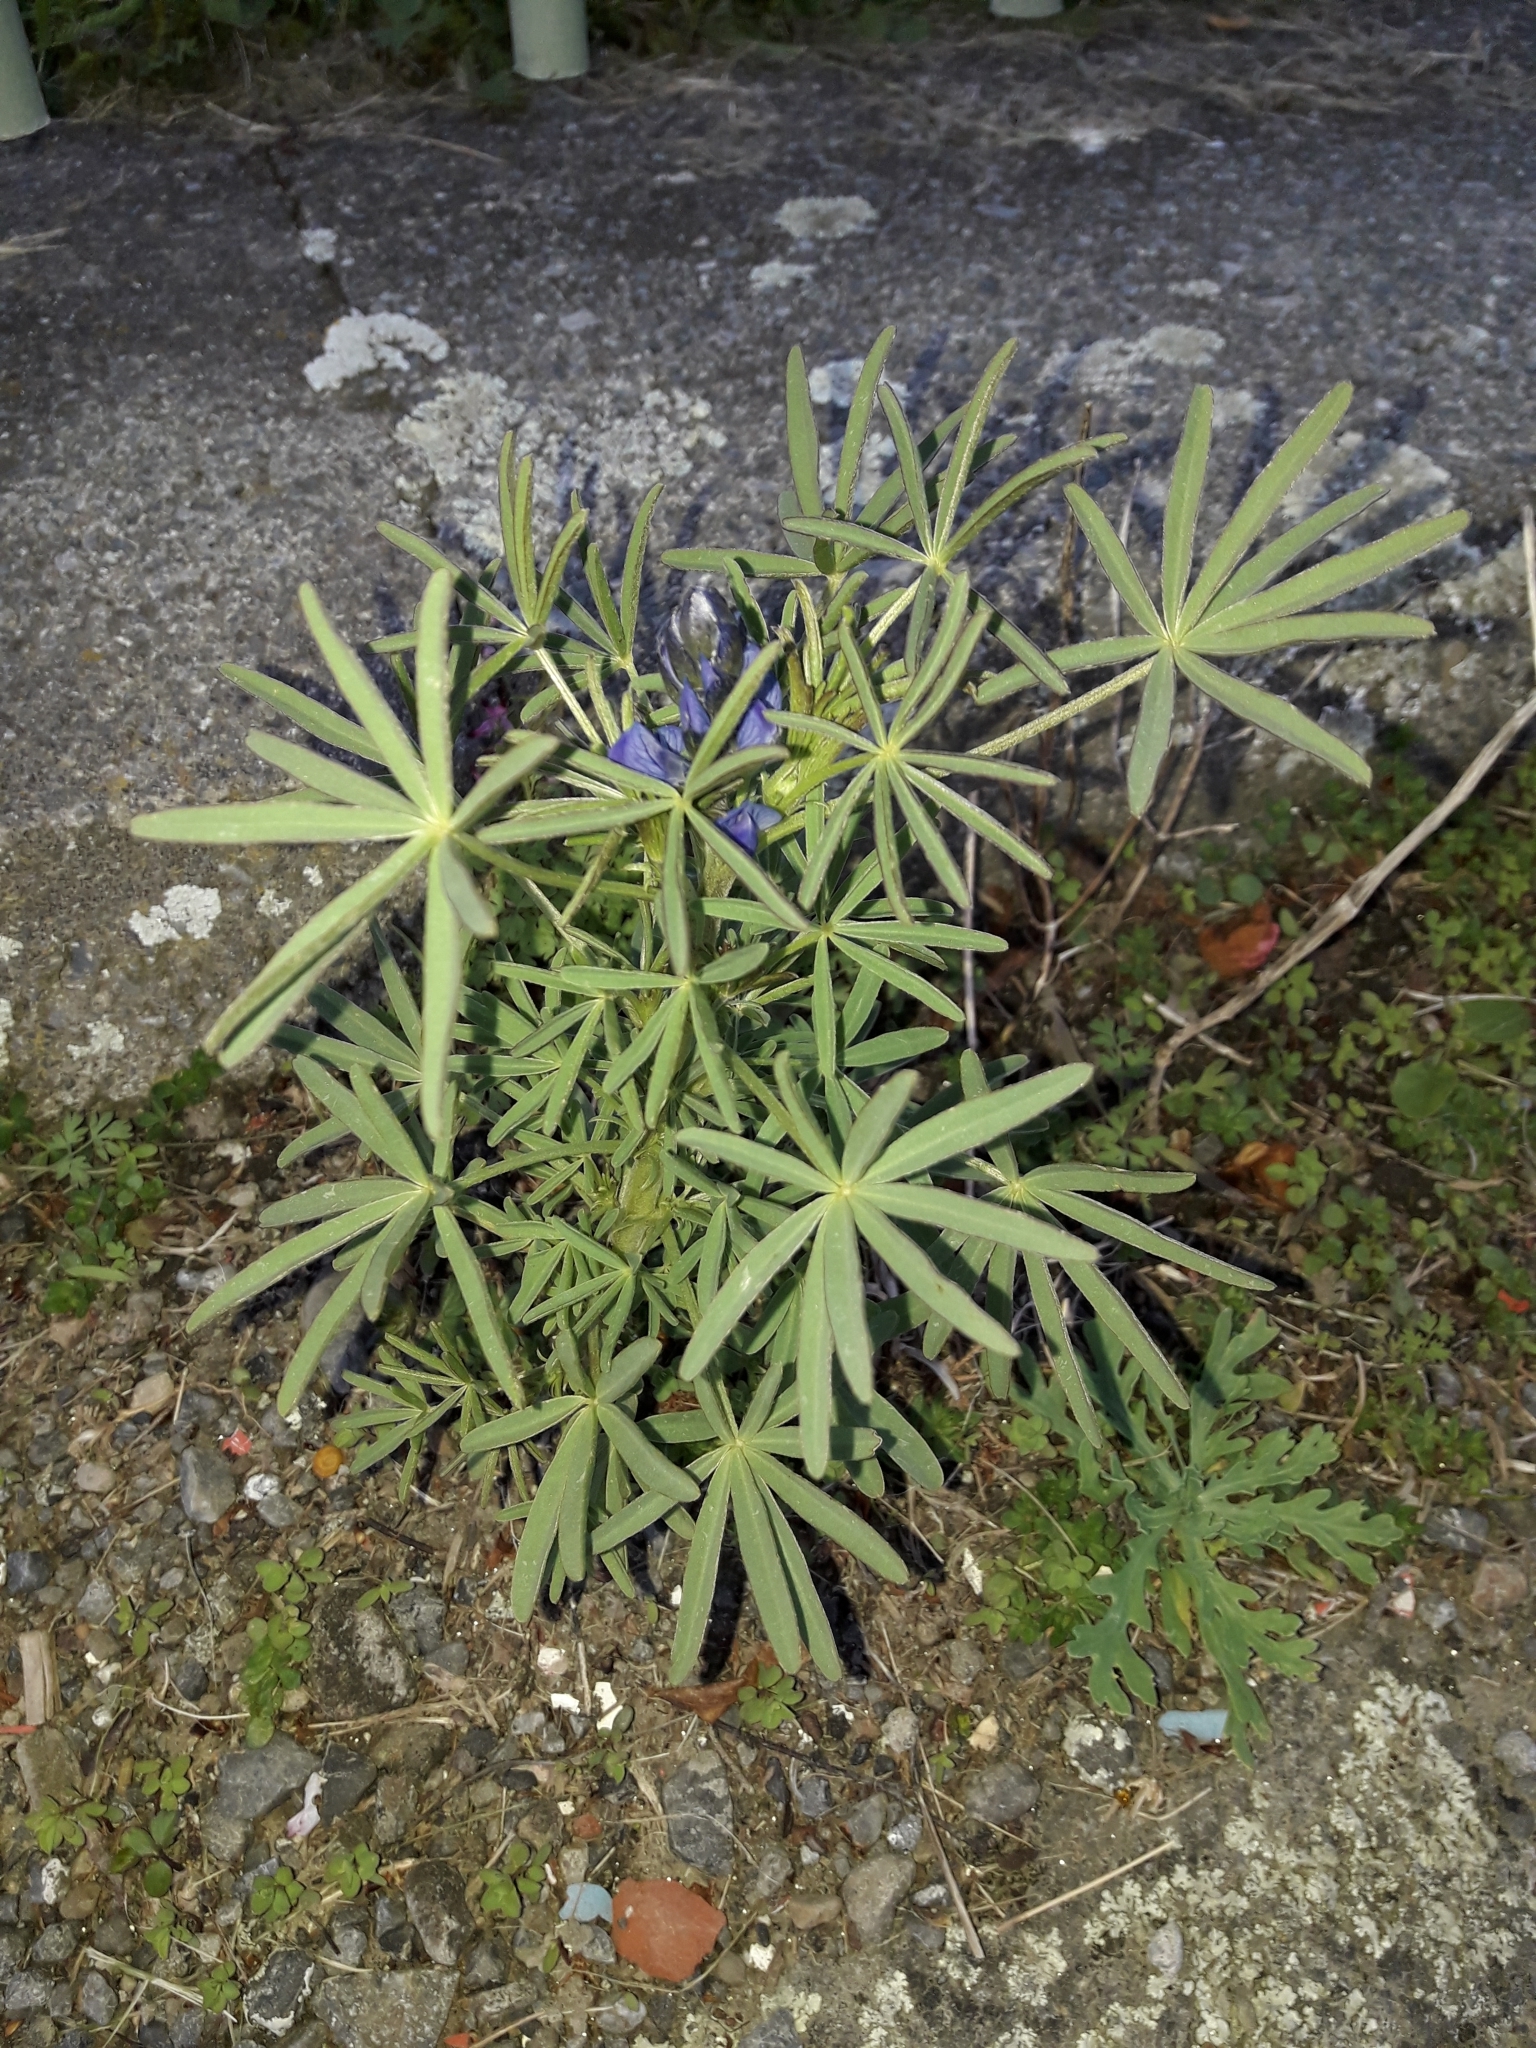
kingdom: Plantae
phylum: Tracheophyta
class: Magnoliopsida
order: Fabales
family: Fabaceae
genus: Lupinus
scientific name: Lupinus regalis
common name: Russell lupin
